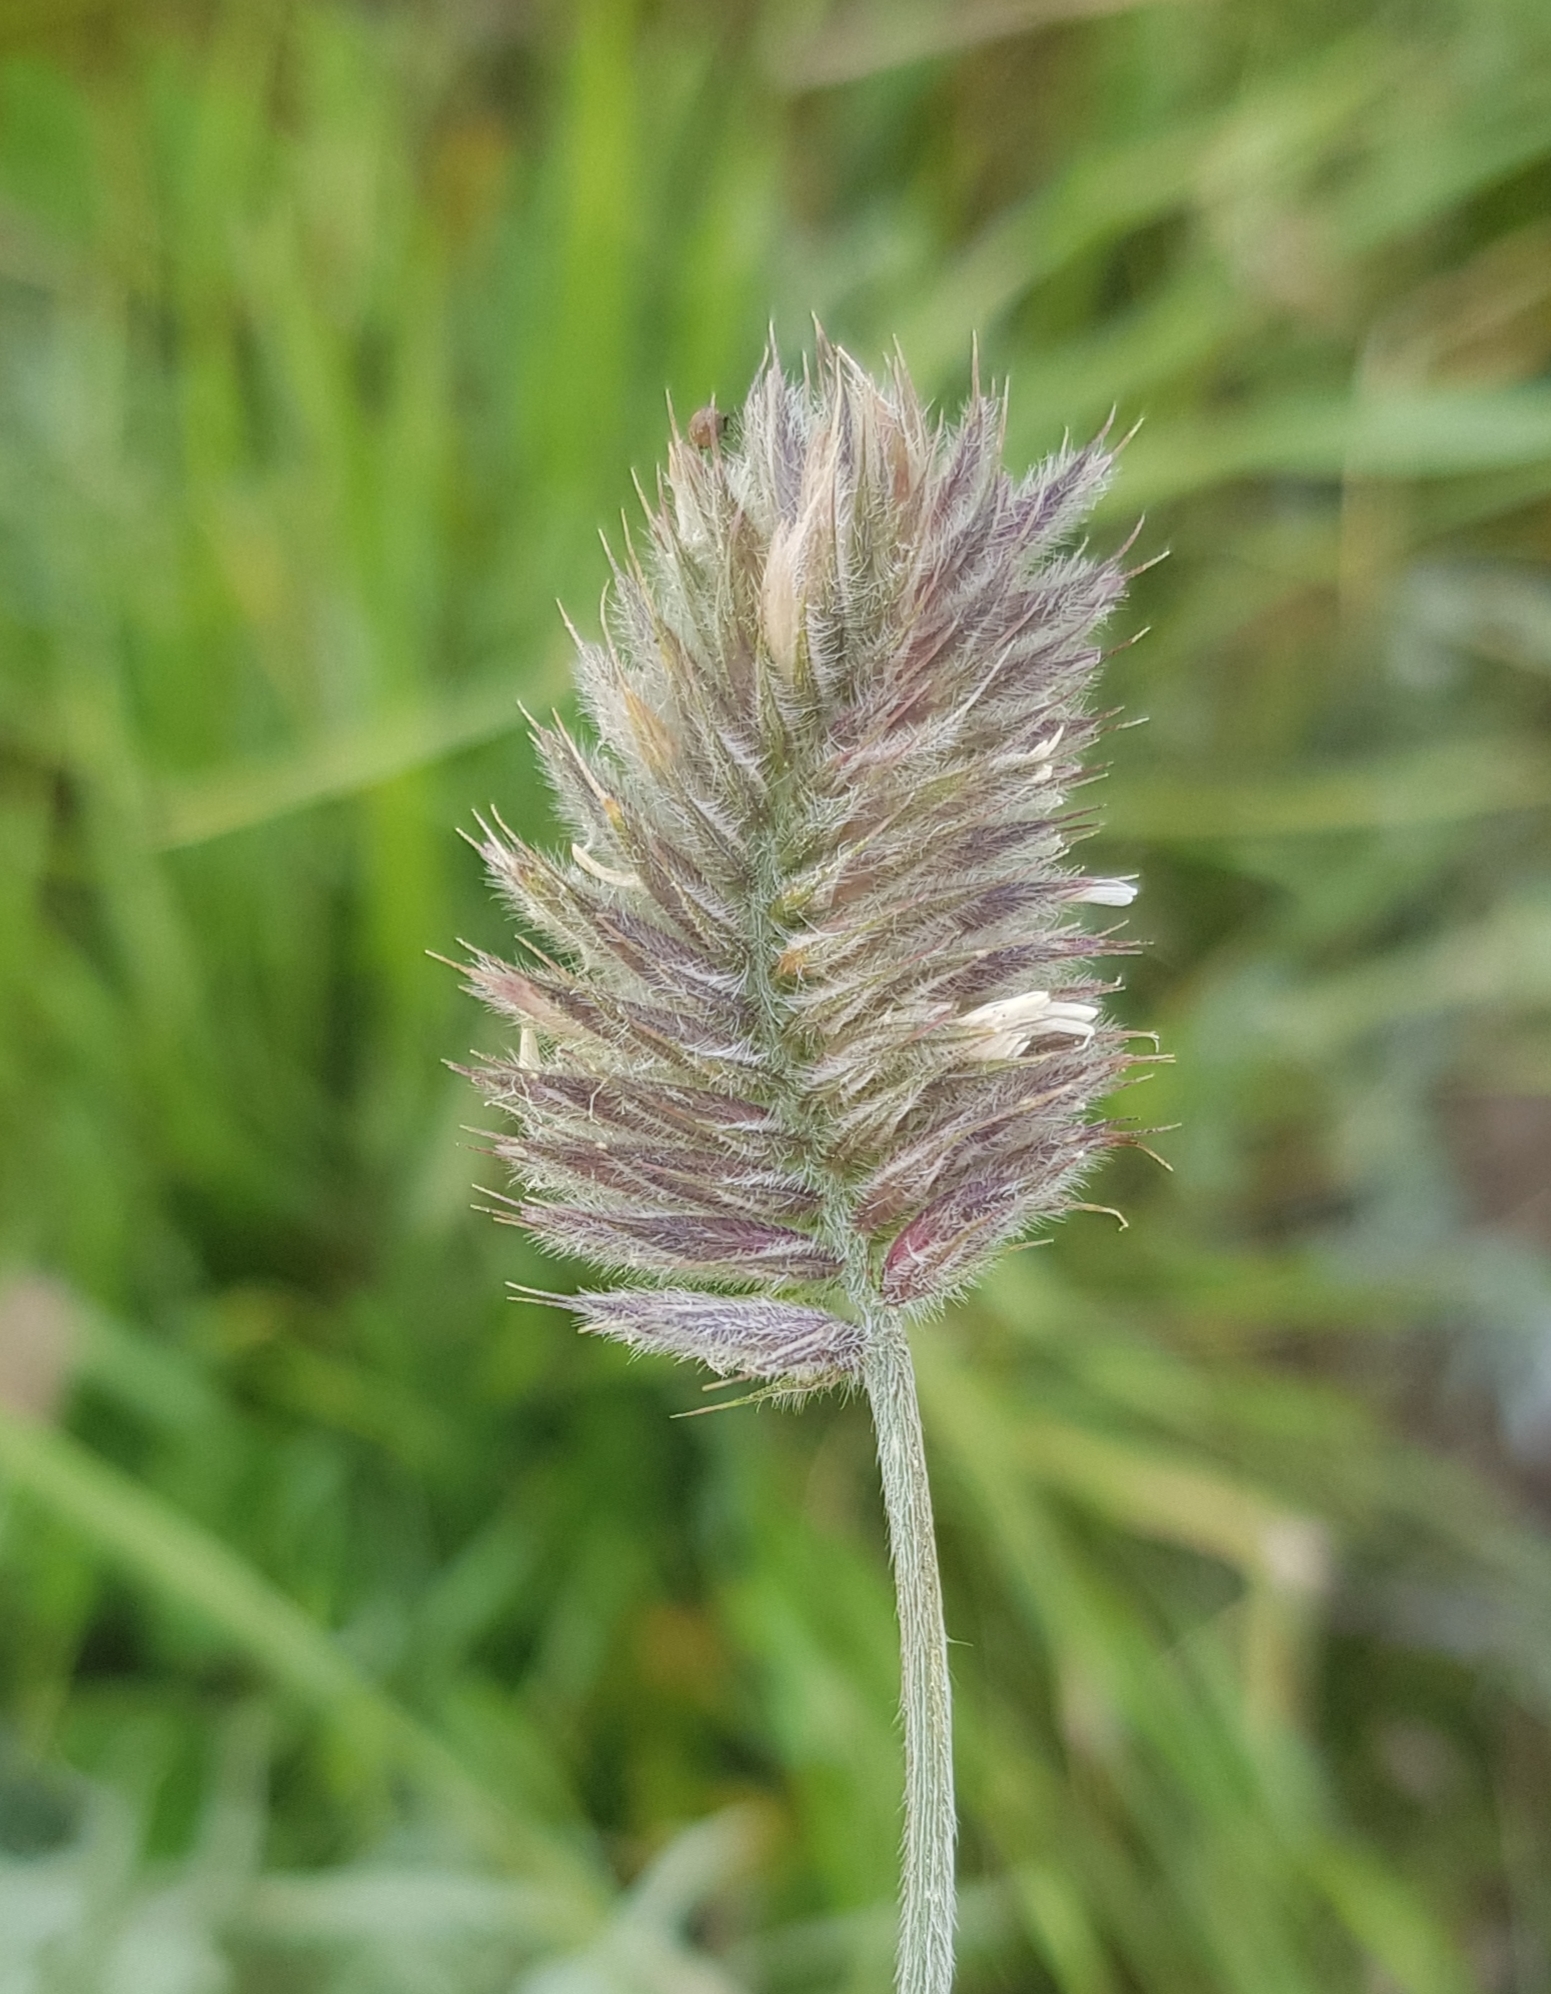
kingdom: Plantae
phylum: Tracheophyta
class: Liliopsida
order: Poales
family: Poaceae
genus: Agropyron
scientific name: Agropyron cristatum
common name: Crested wheatgrass
